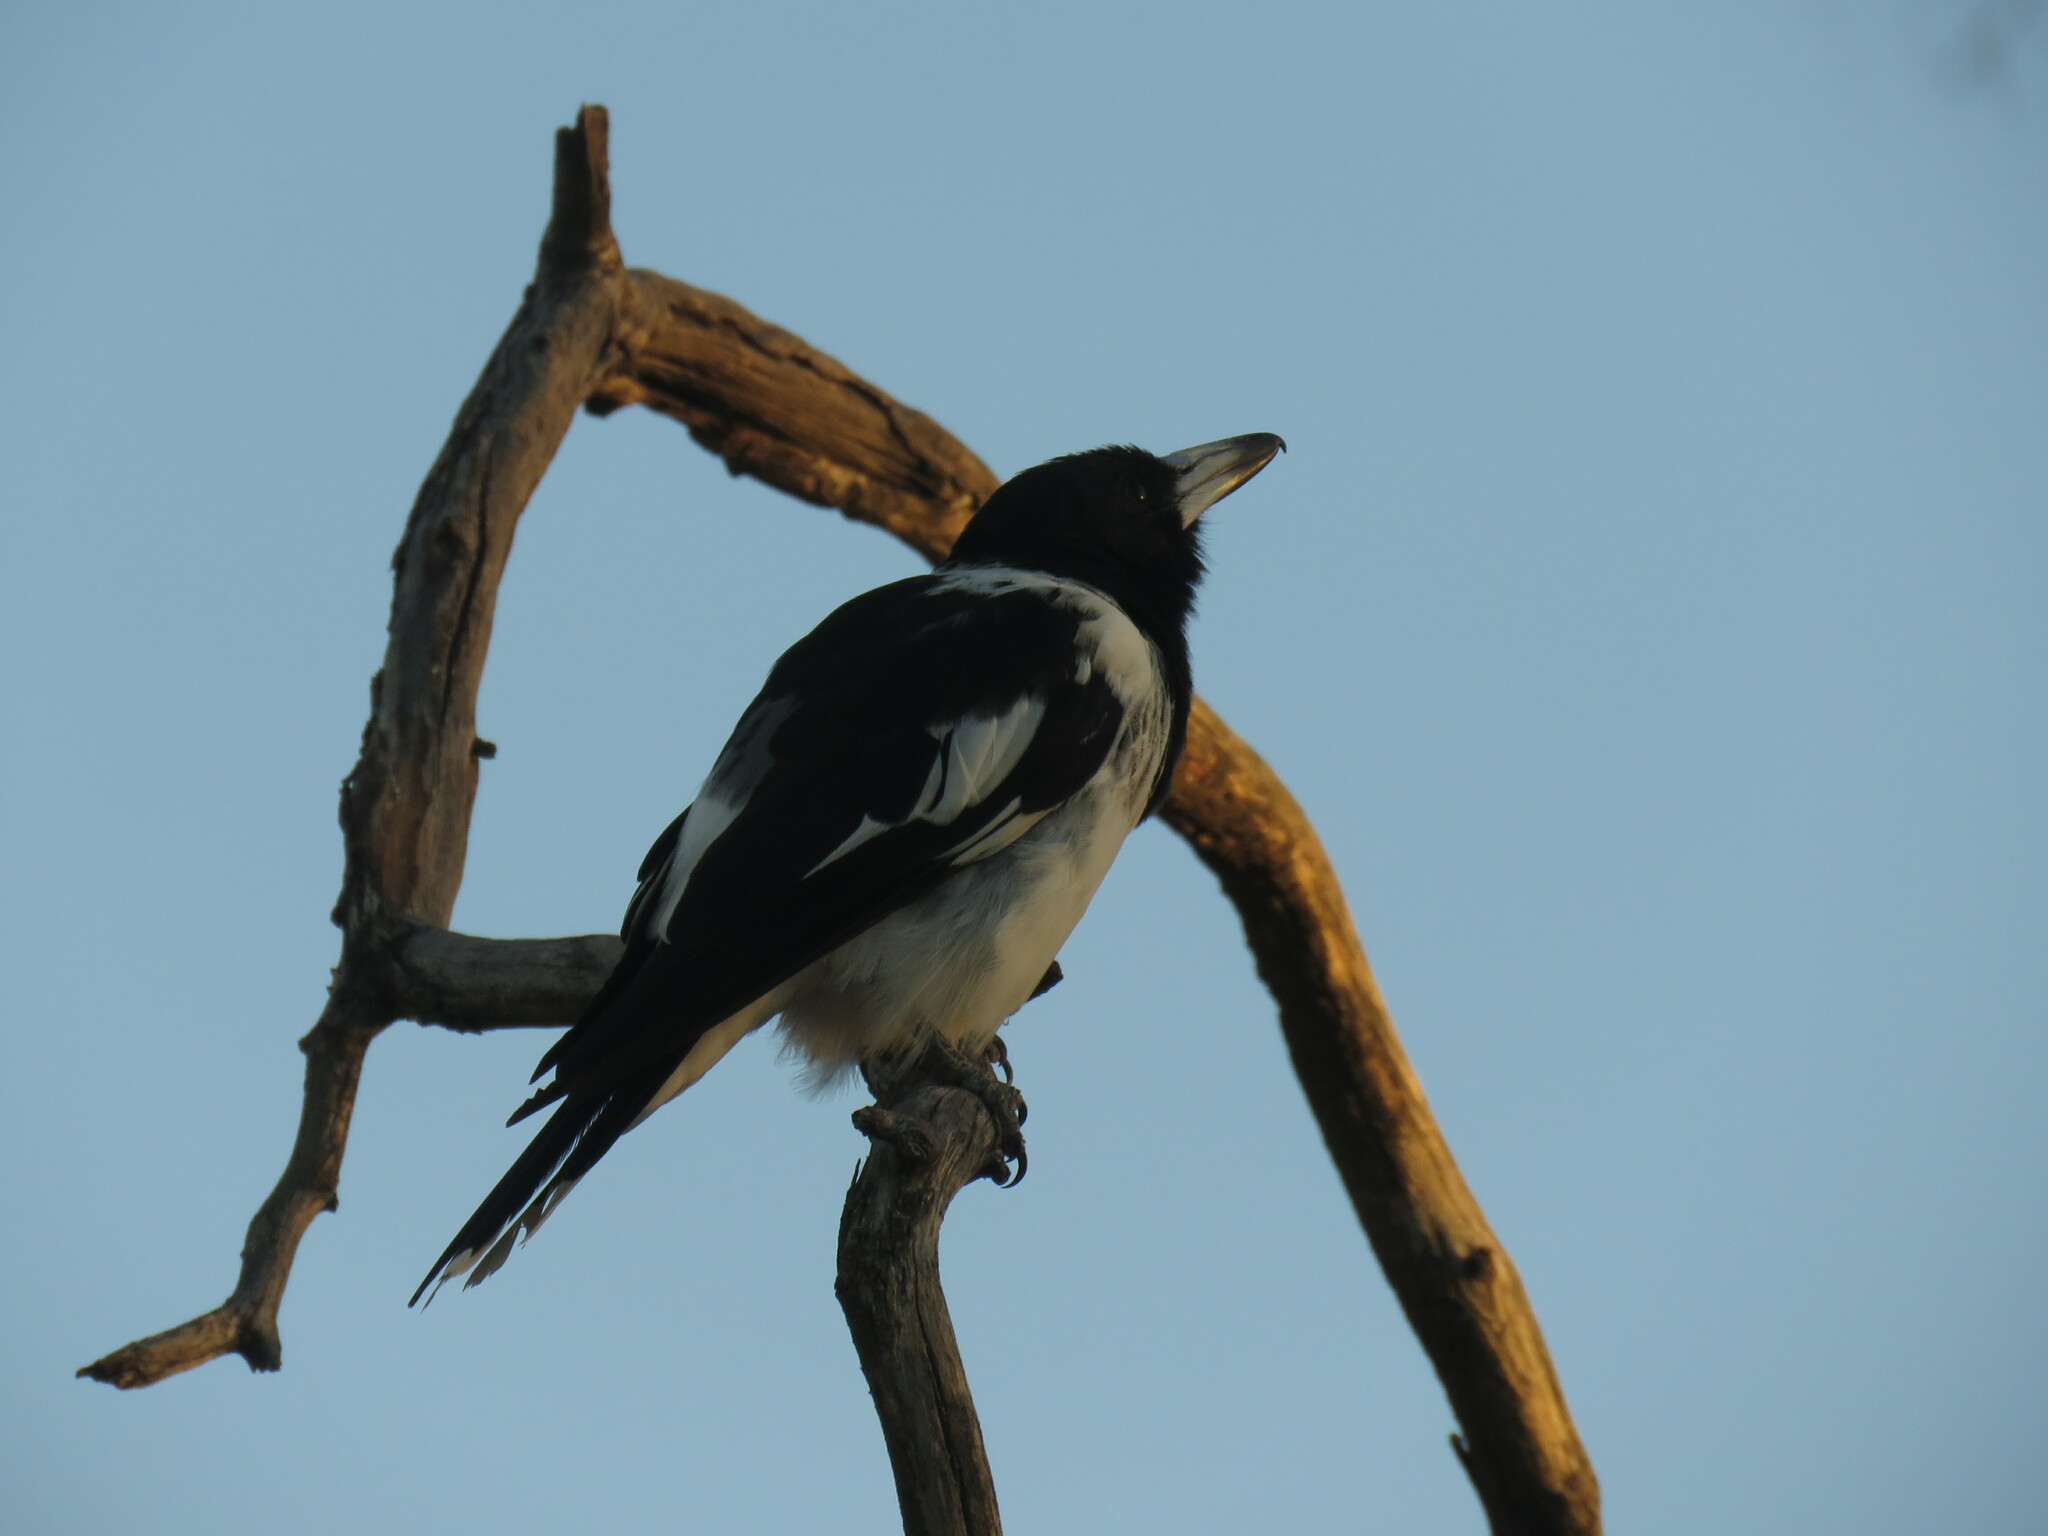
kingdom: Animalia
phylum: Chordata
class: Aves
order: Passeriformes
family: Cracticidae
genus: Cracticus
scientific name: Cracticus nigrogularis
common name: Pied butcherbird
